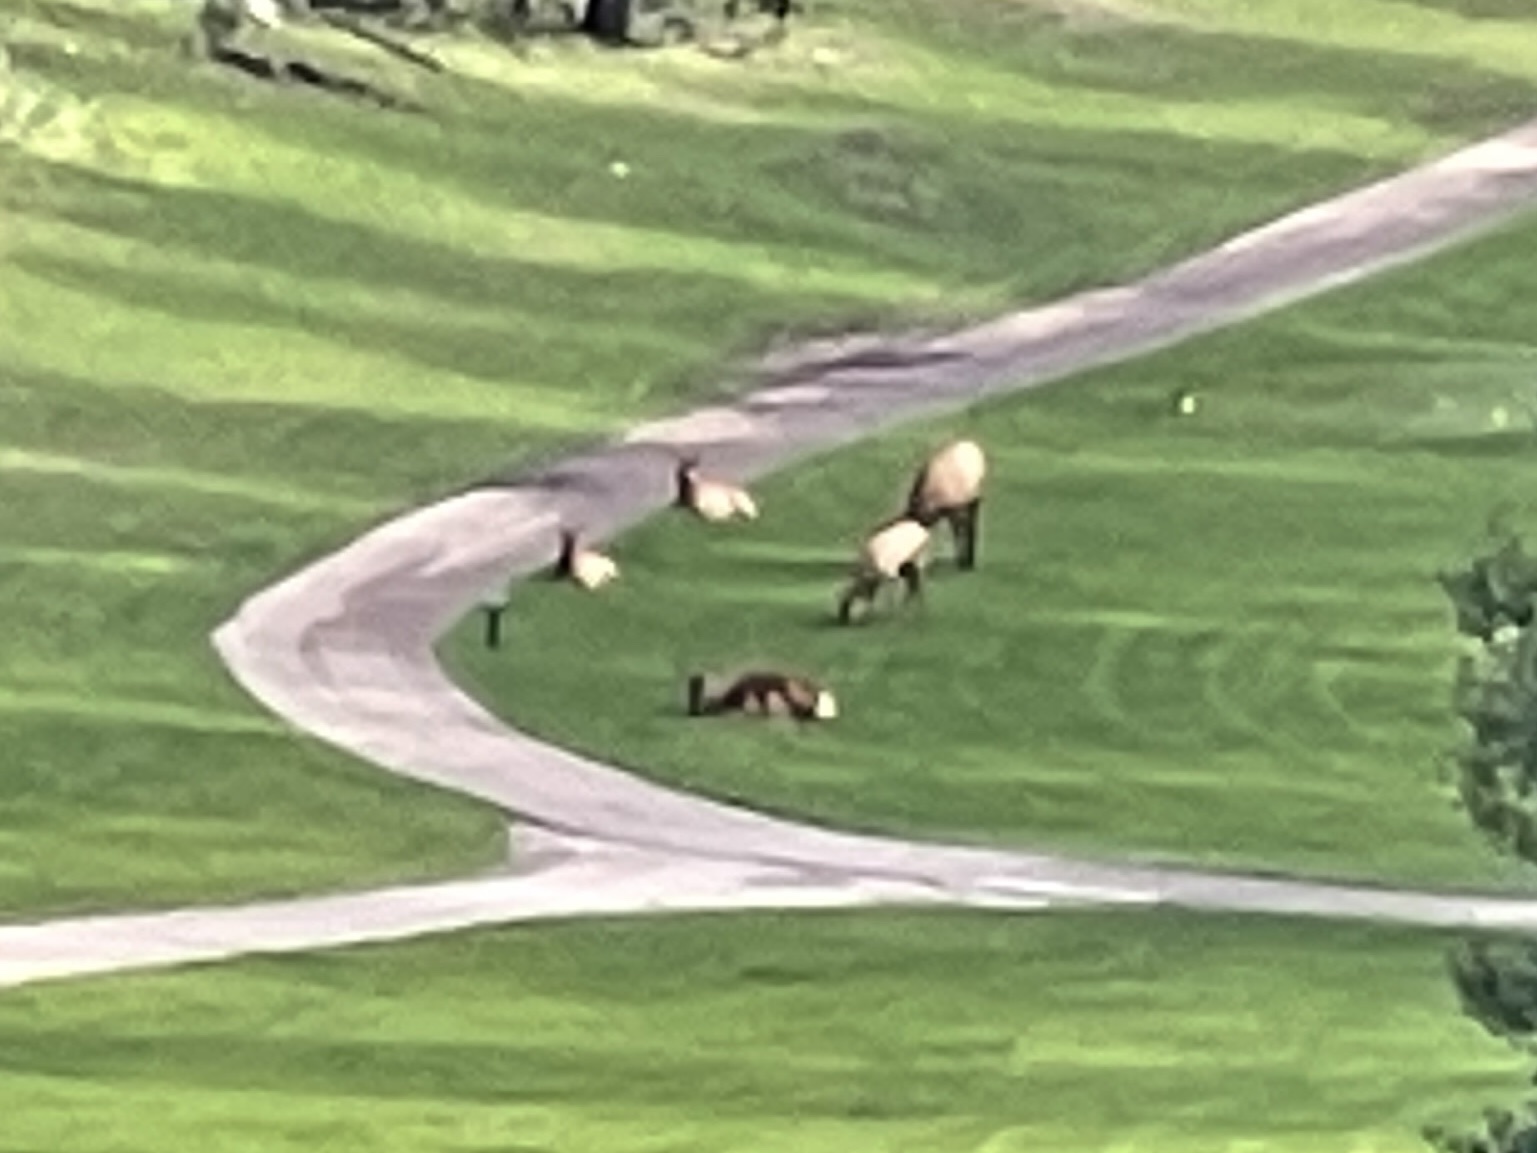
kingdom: Animalia
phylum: Chordata
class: Mammalia
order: Artiodactyla
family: Cervidae
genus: Cervus
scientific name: Cervus elaphus
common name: Red deer
